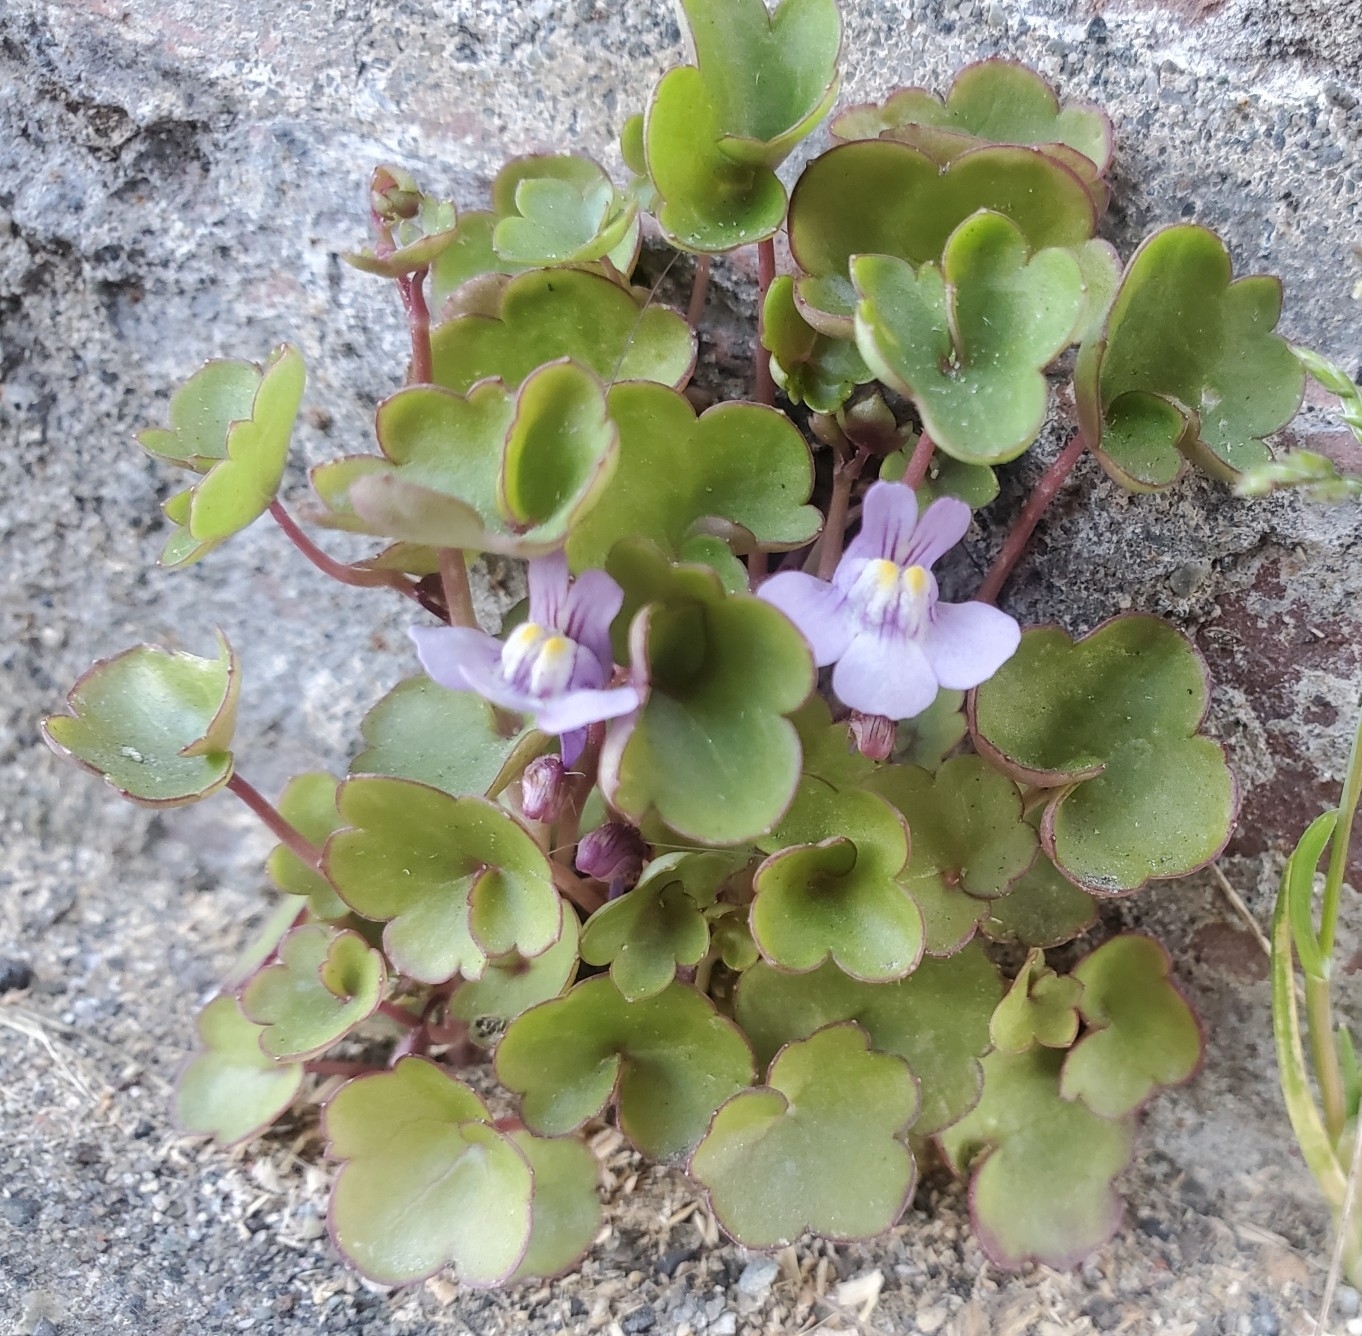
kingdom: Plantae
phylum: Tracheophyta
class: Magnoliopsida
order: Lamiales
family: Plantaginaceae
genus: Cymbalaria
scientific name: Cymbalaria muralis
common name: Ivy-leaved toadflax
